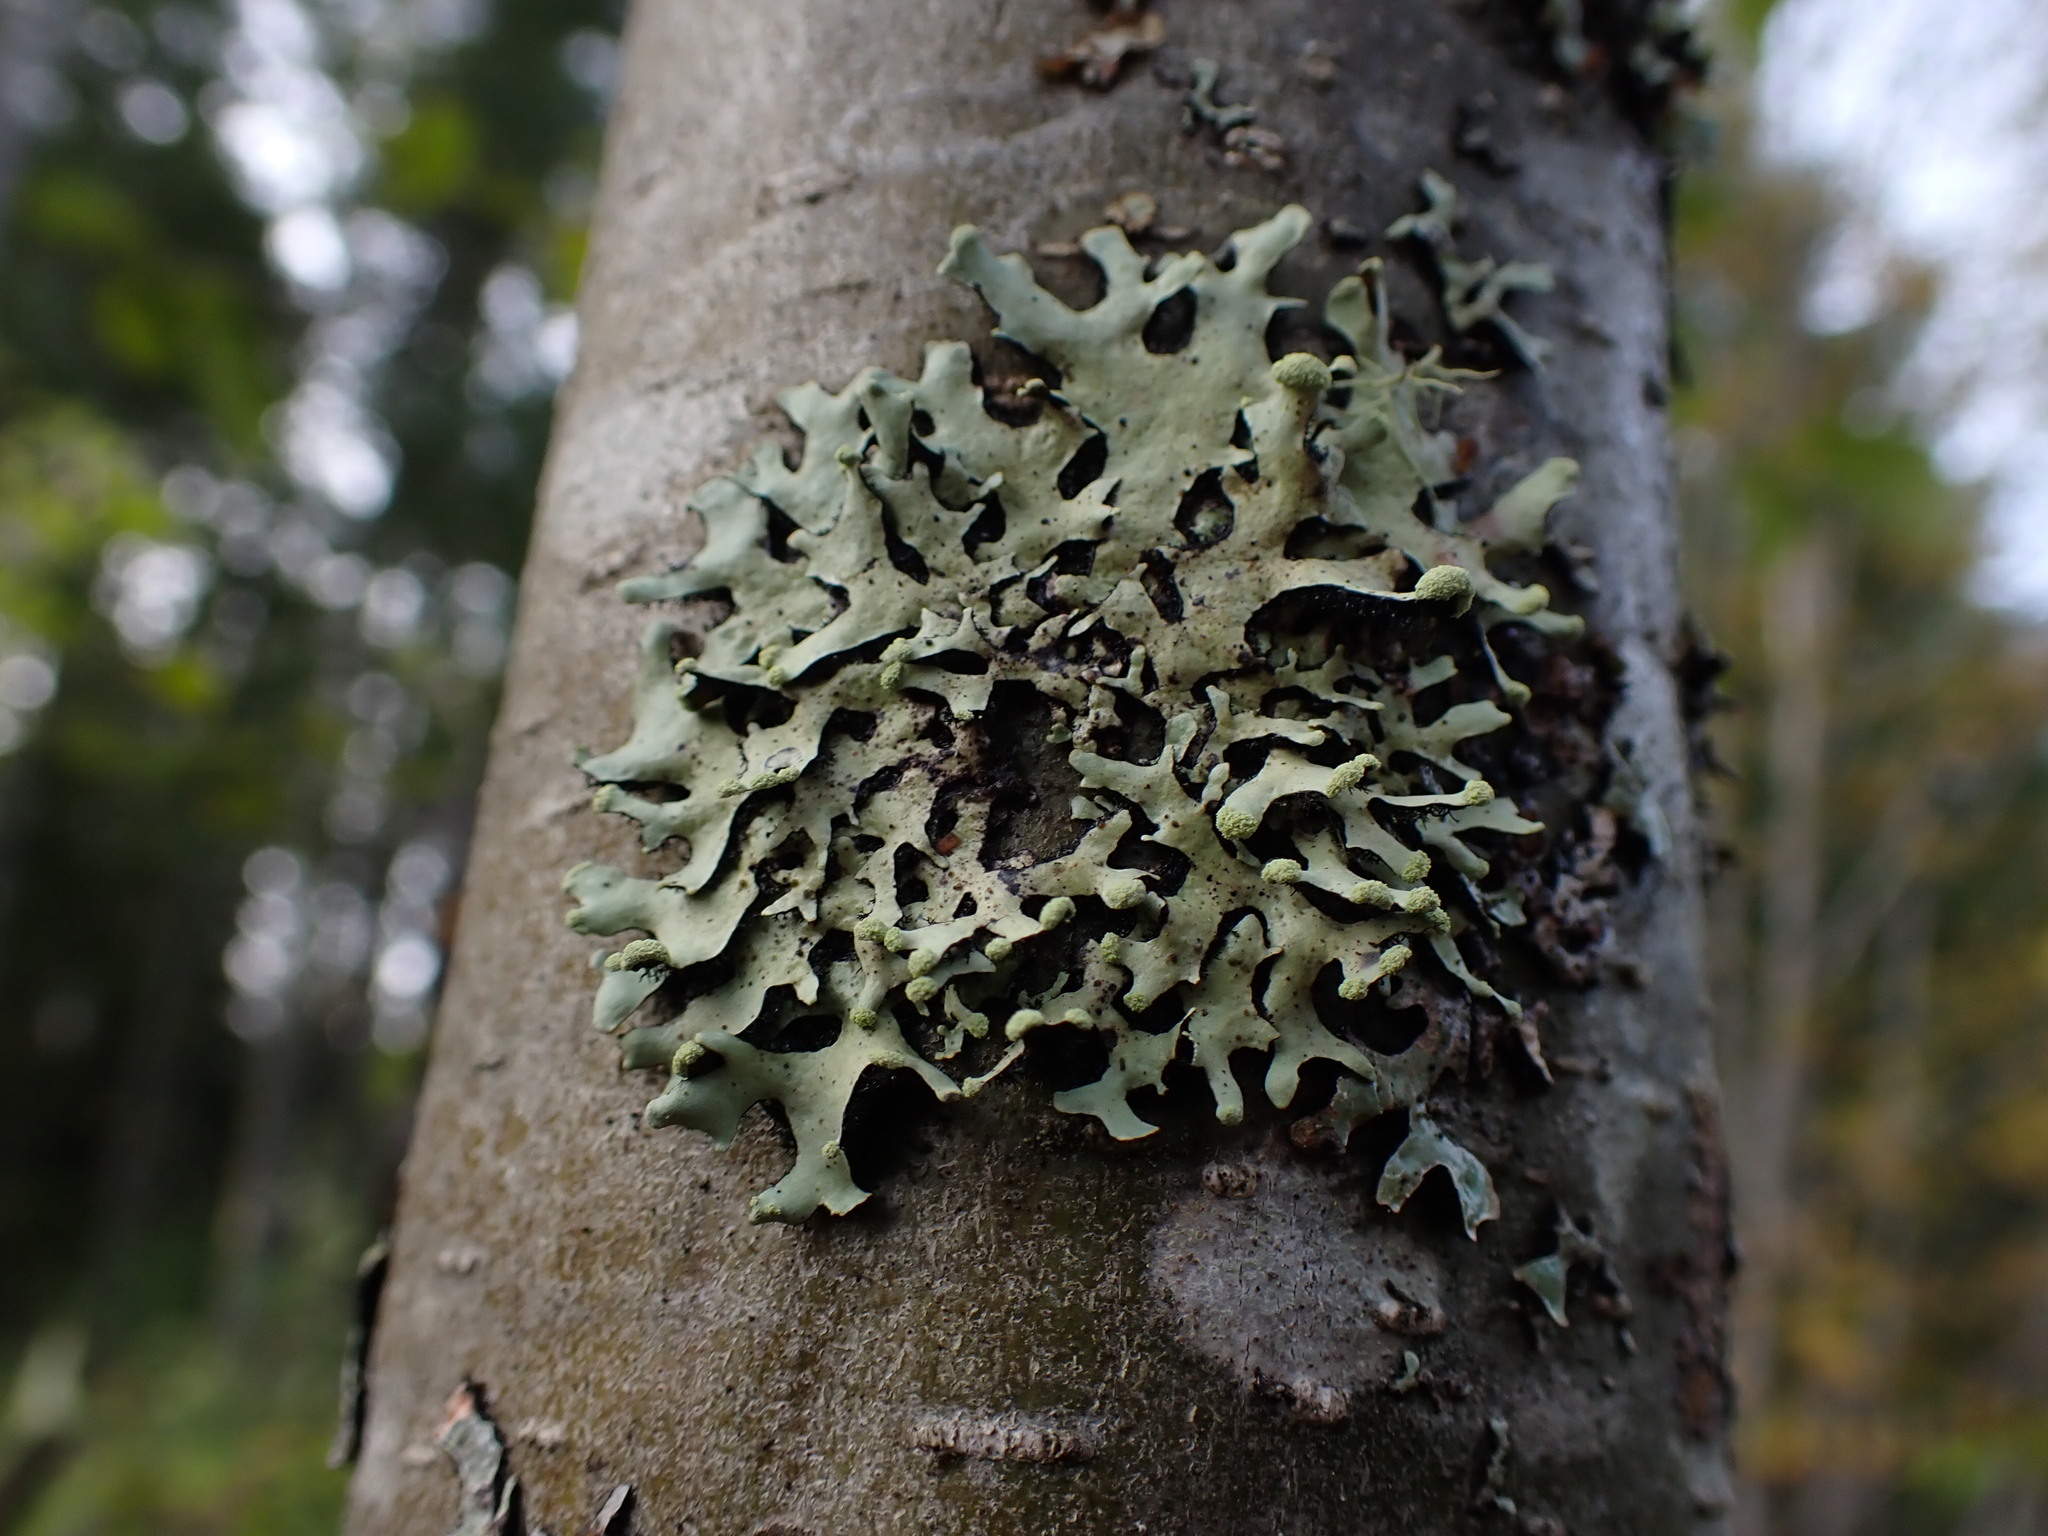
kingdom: Fungi
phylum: Ascomycota
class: Lecanoromycetes
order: Lecanorales
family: Parmeliaceae
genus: Hypotrachyna
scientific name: Hypotrachyna sinuosa
